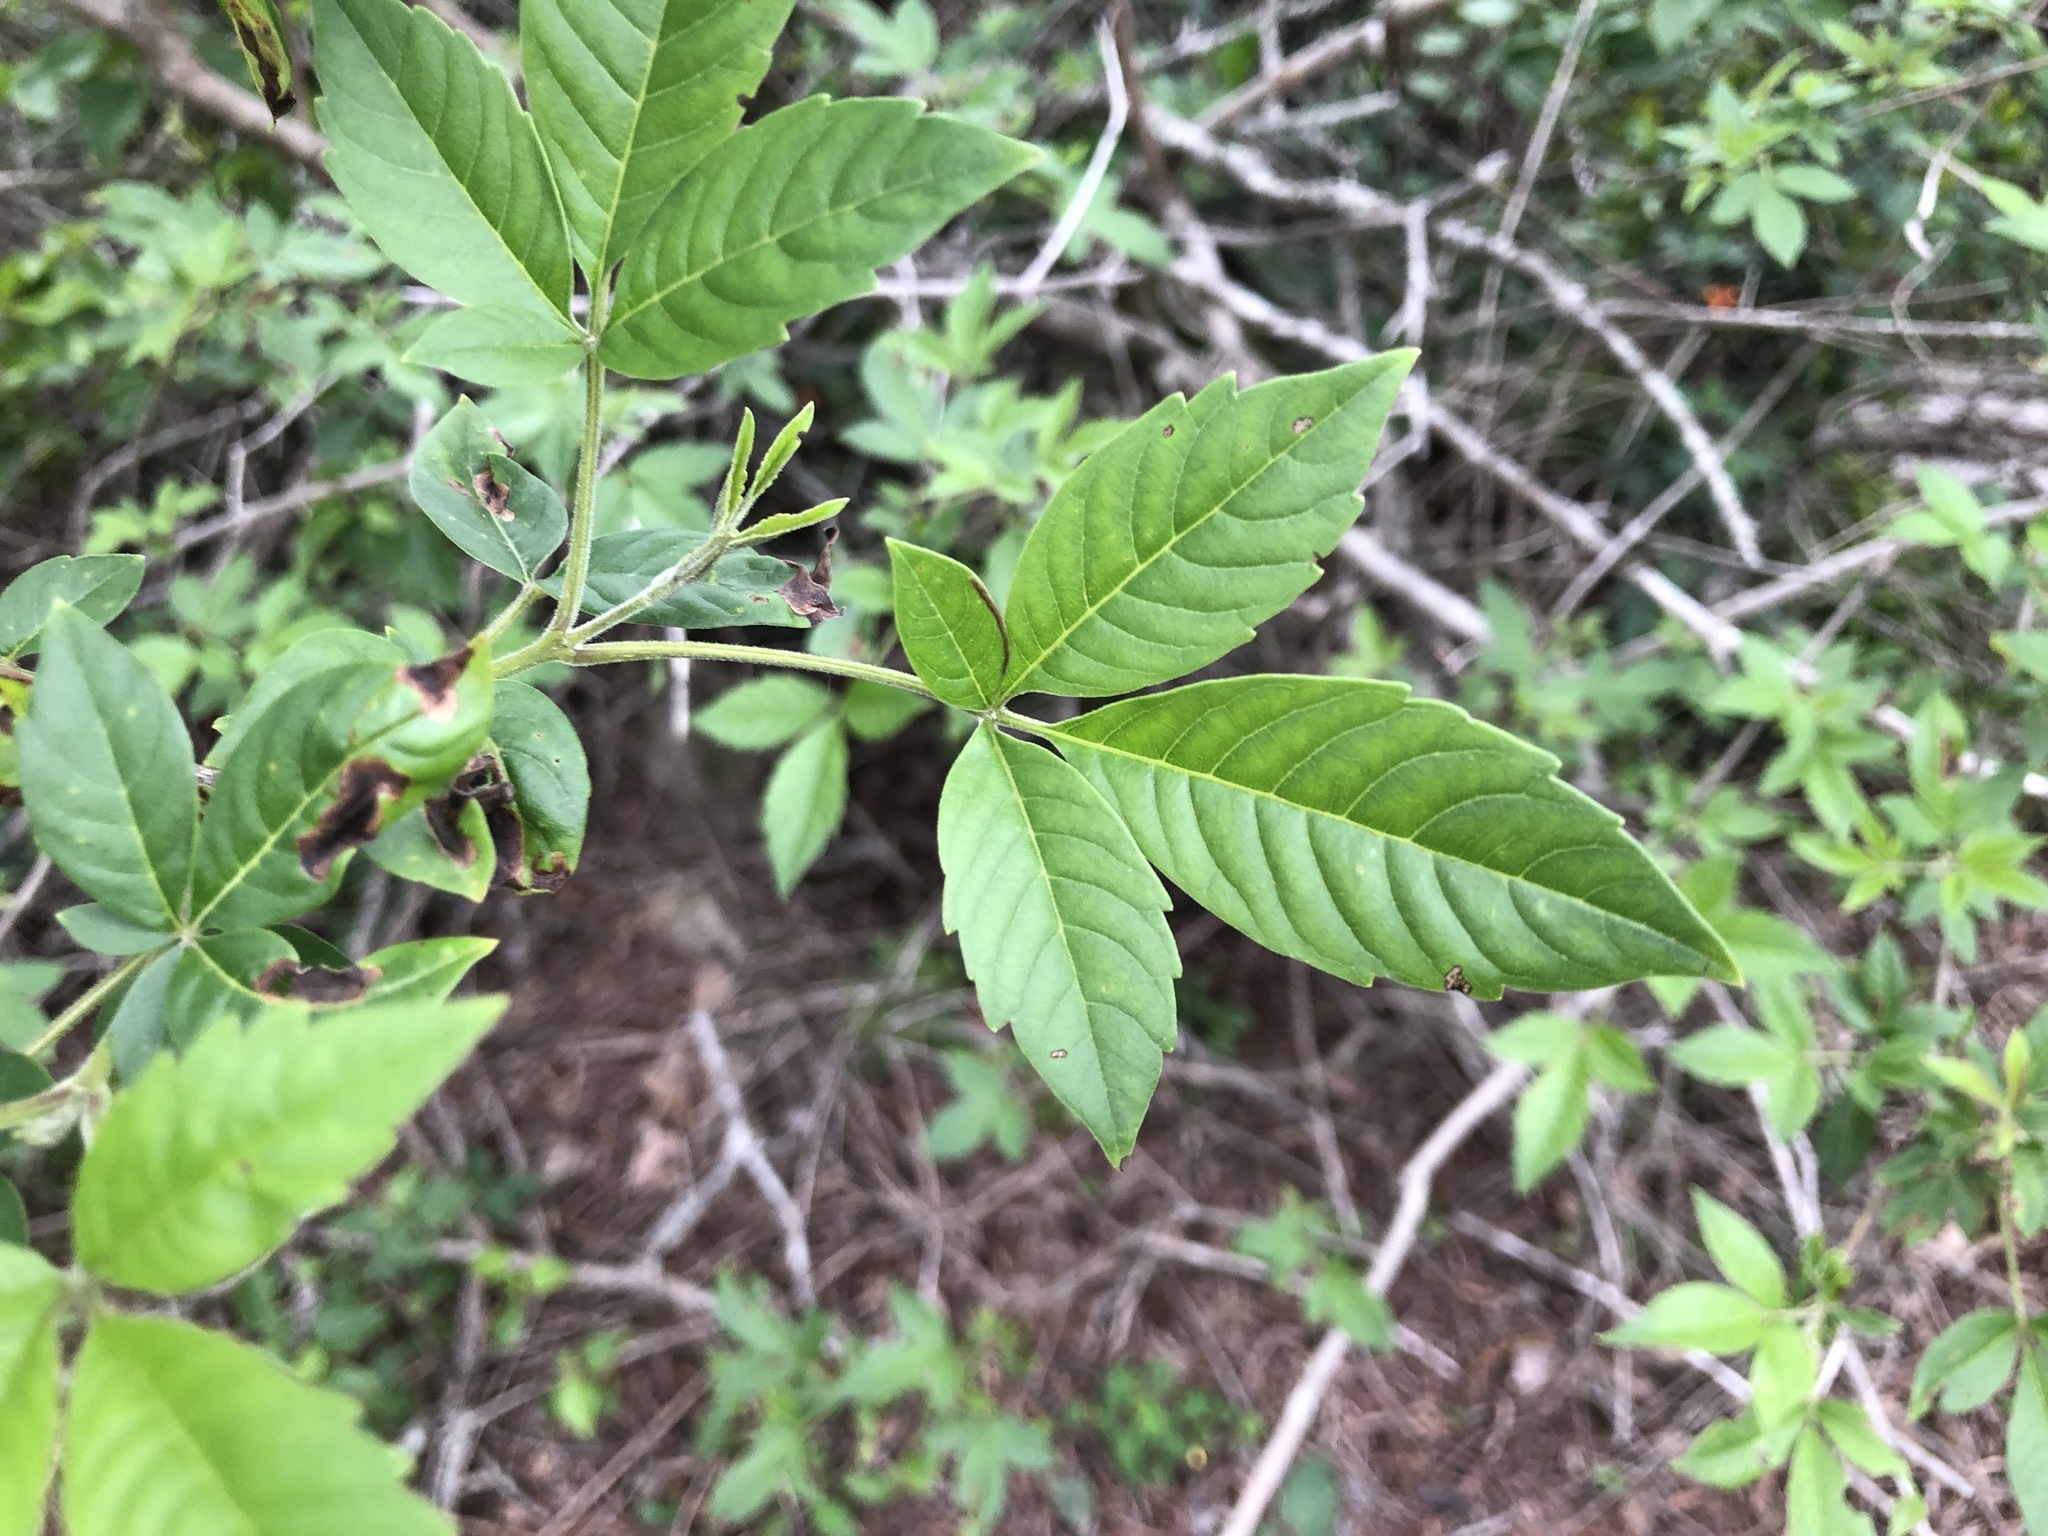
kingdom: Plantae
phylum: Tracheophyta
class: Magnoliopsida
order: Lamiales
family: Lamiaceae
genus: Vitex
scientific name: Vitex negundo
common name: Chinese chastetree
